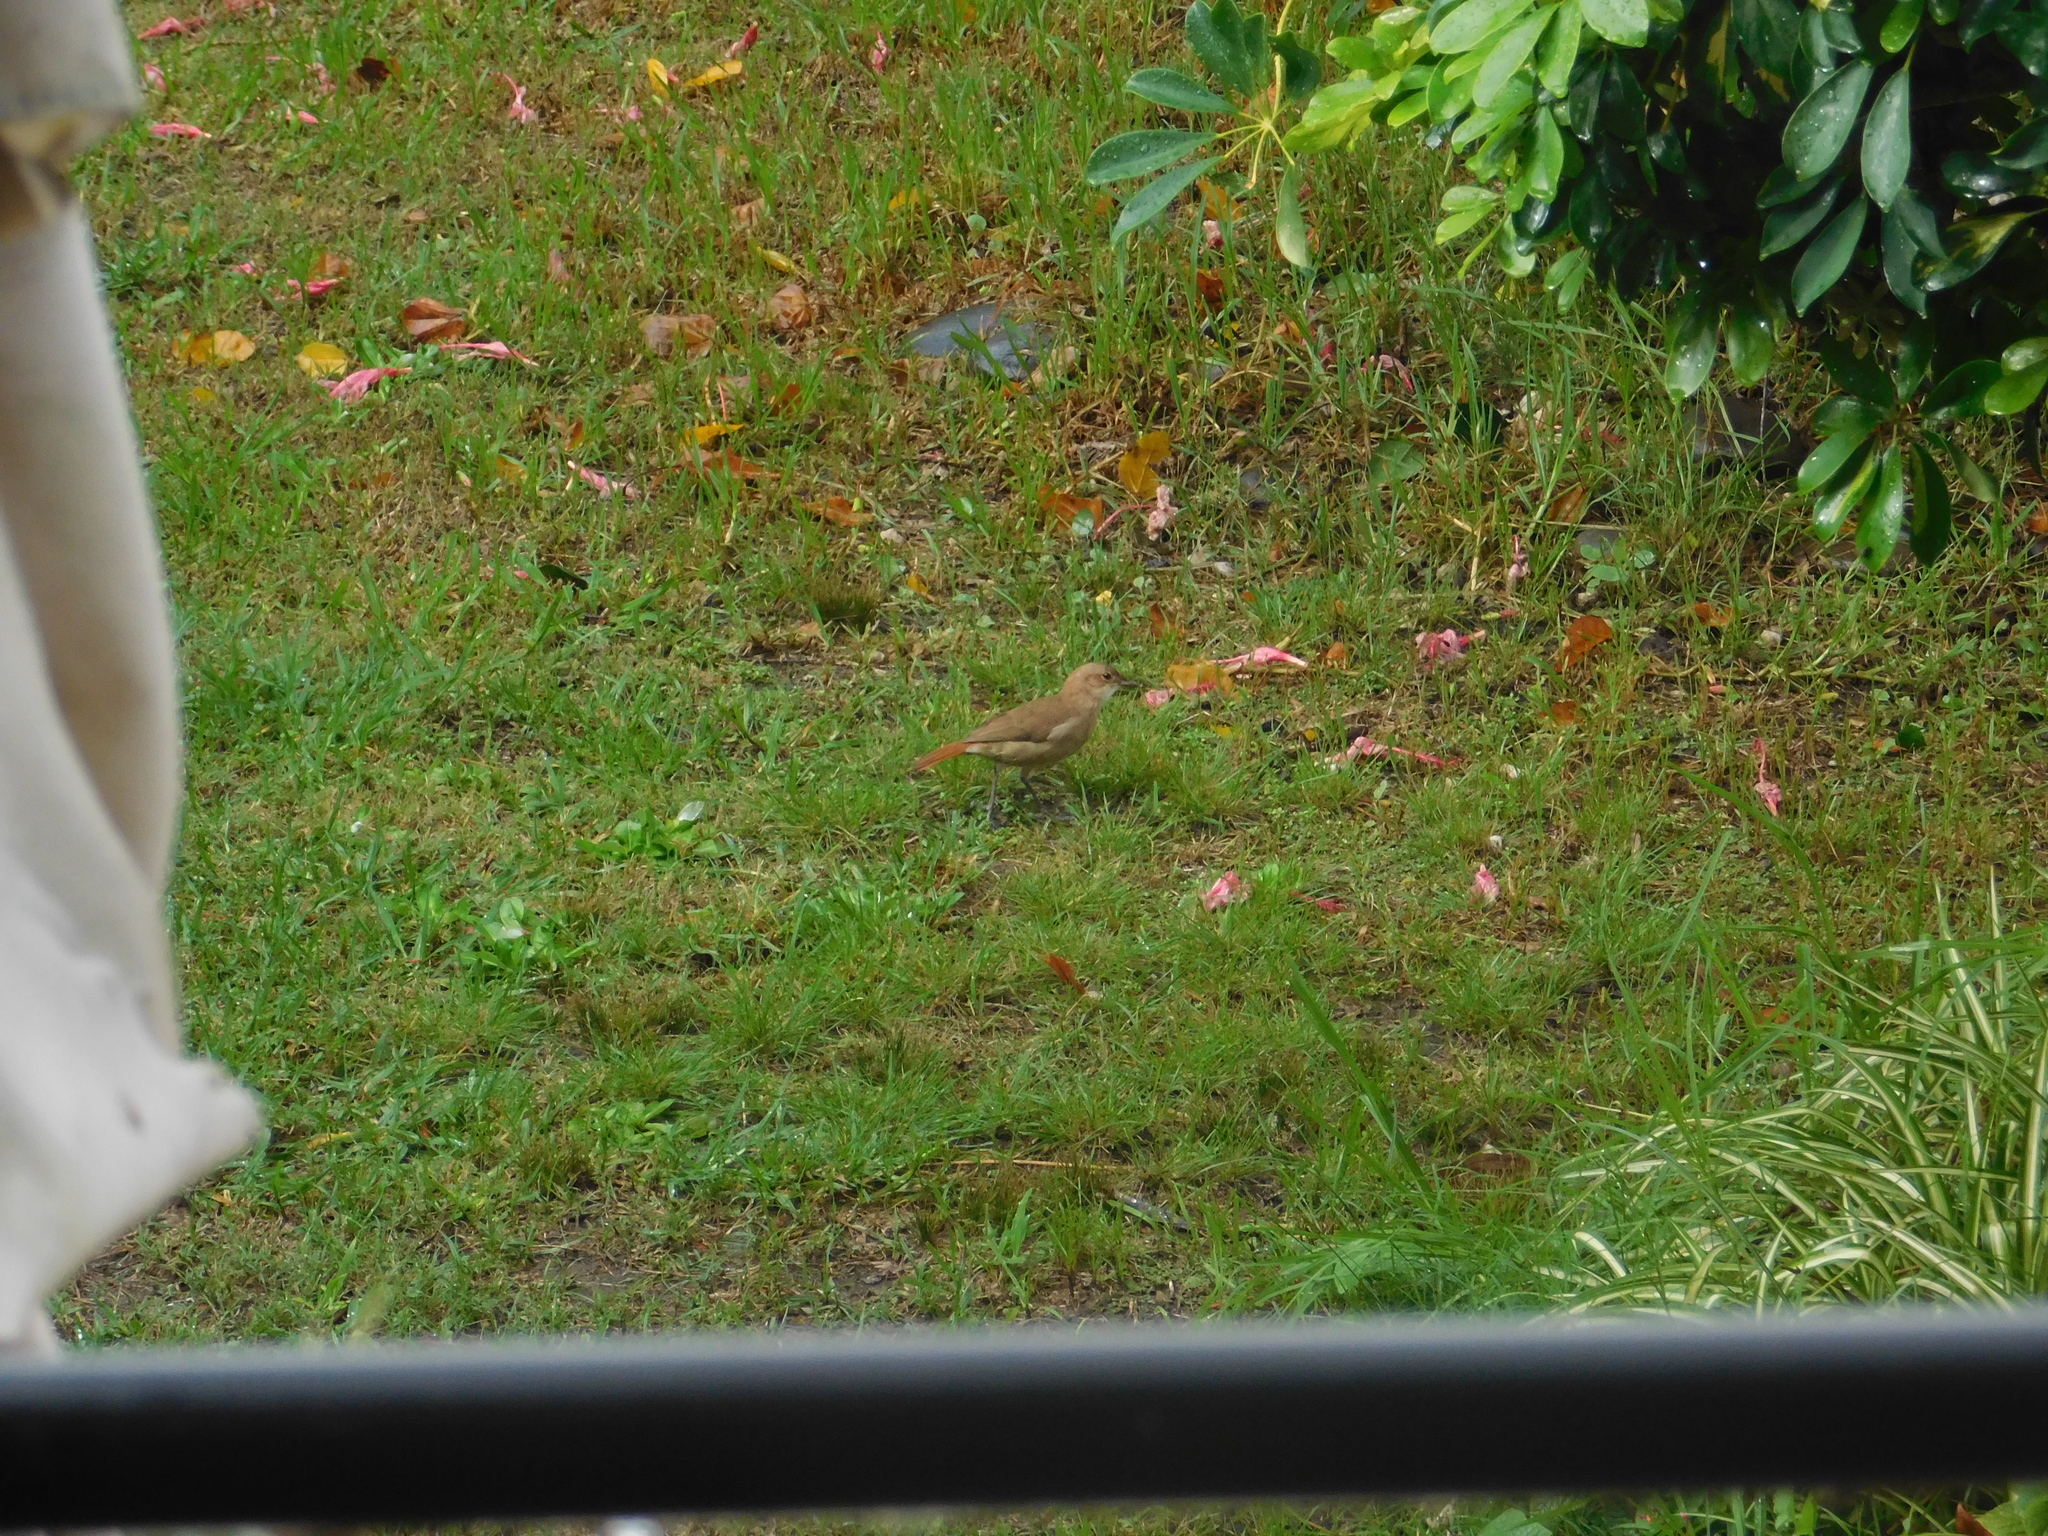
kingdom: Animalia
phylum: Chordata
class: Aves
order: Passeriformes
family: Furnariidae
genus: Furnarius
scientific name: Furnarius rufus
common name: Rufous hornero
